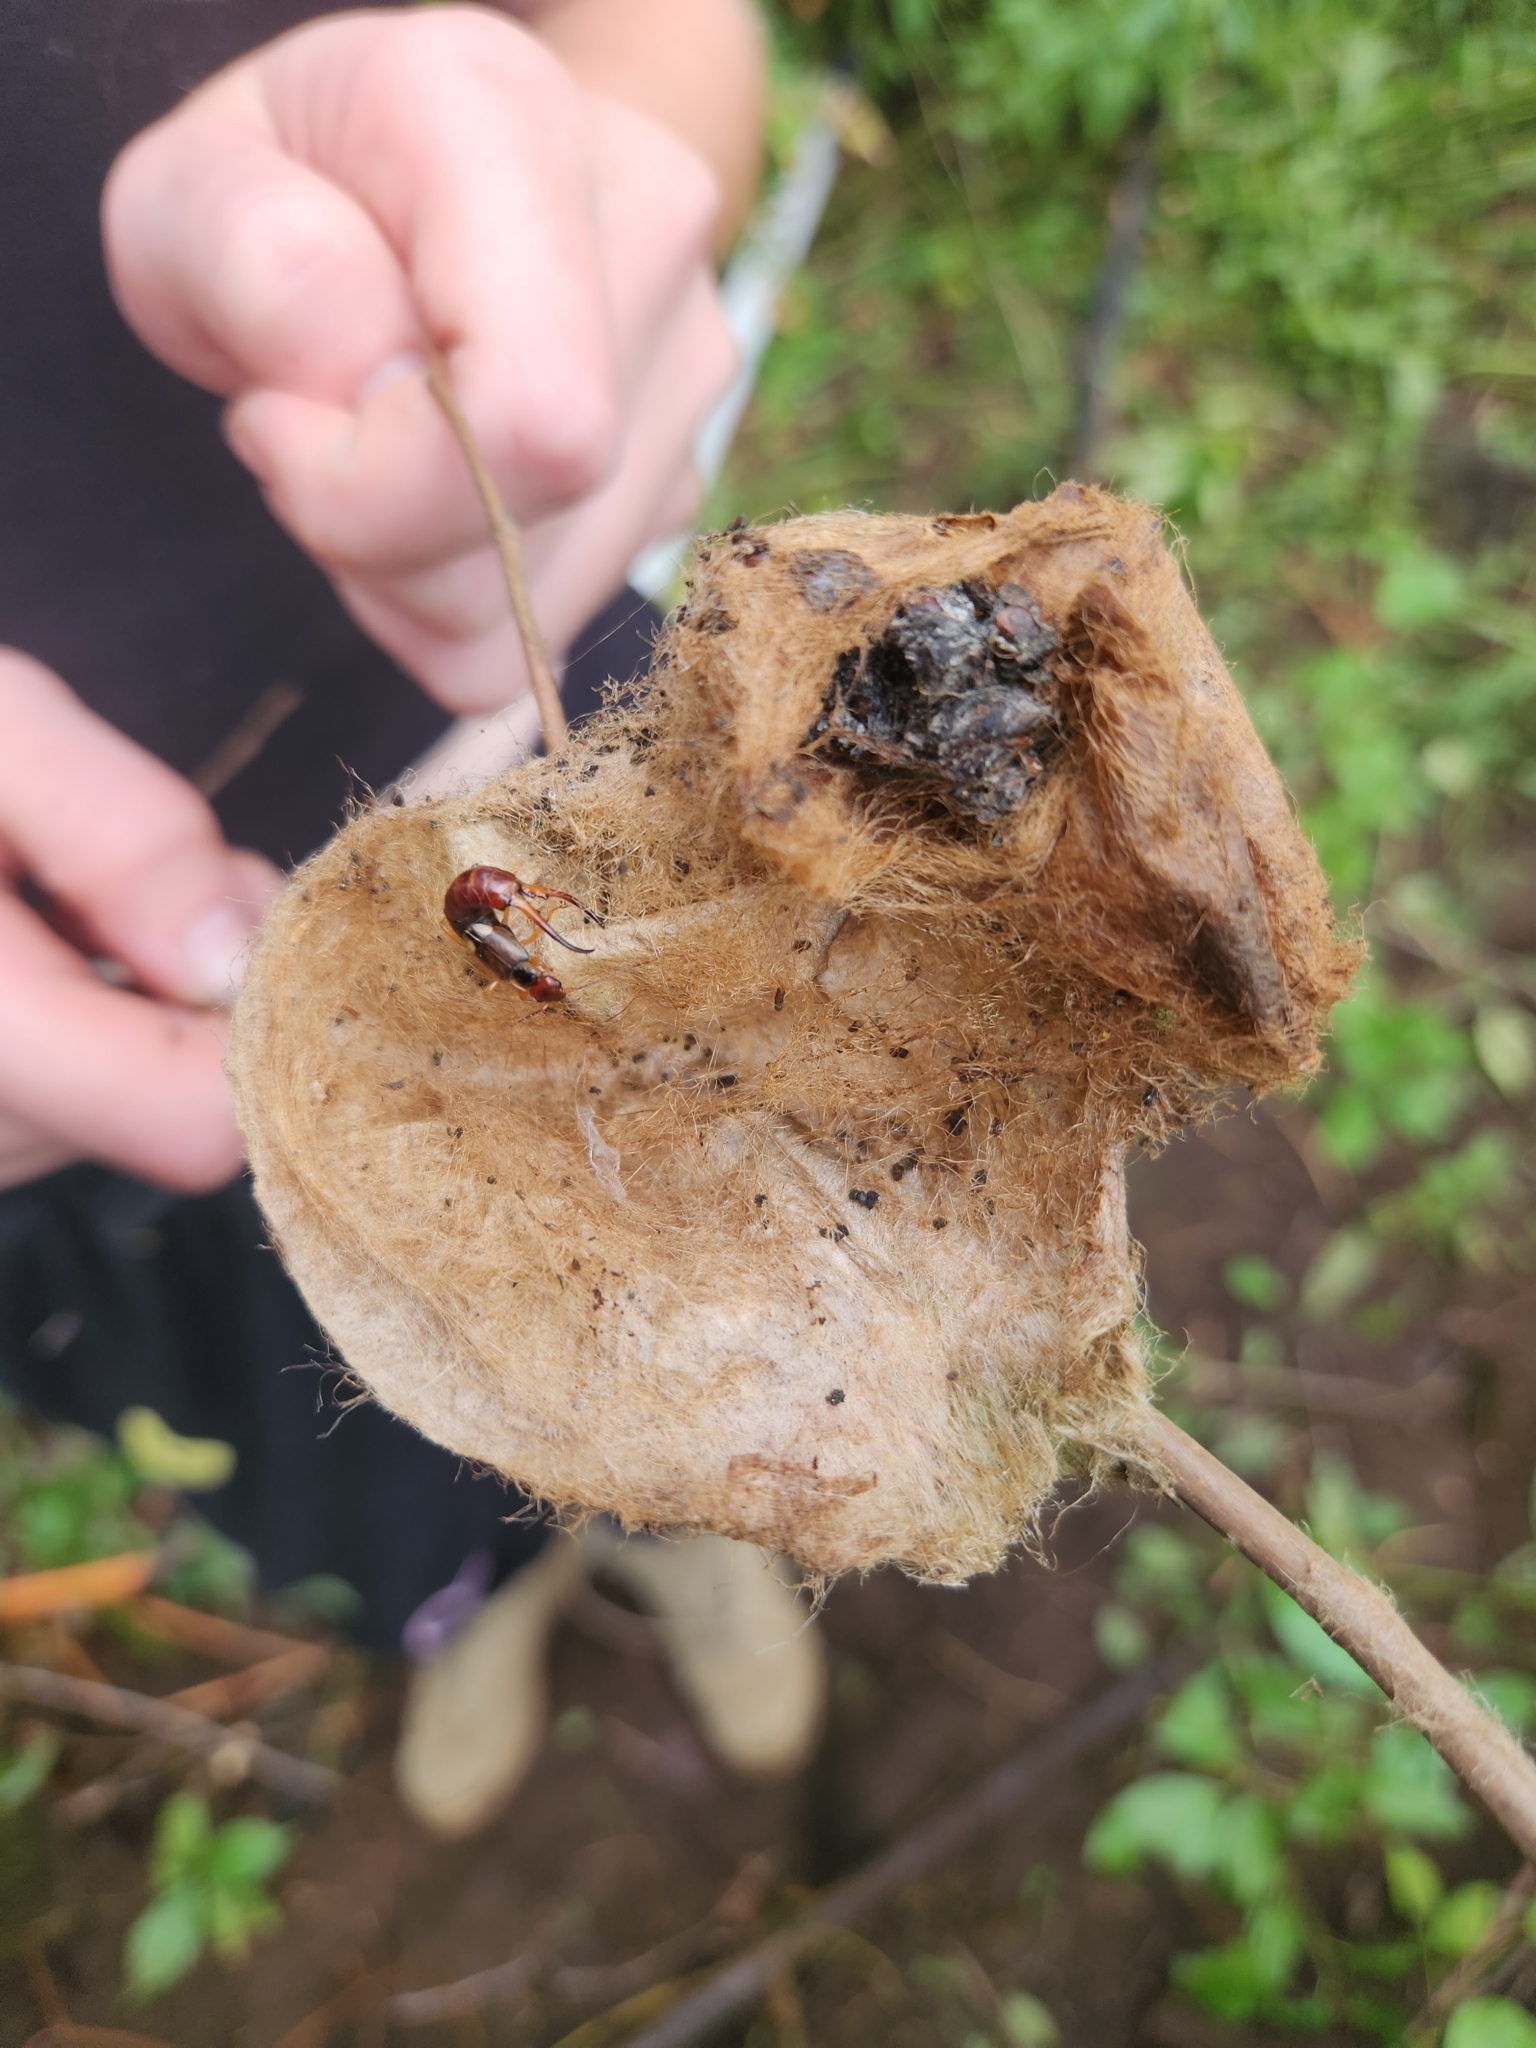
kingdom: Animalia
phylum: Arthropoda
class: Insecta
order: Dermaptera
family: Forficulidae
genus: Forficula
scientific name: Forficula
